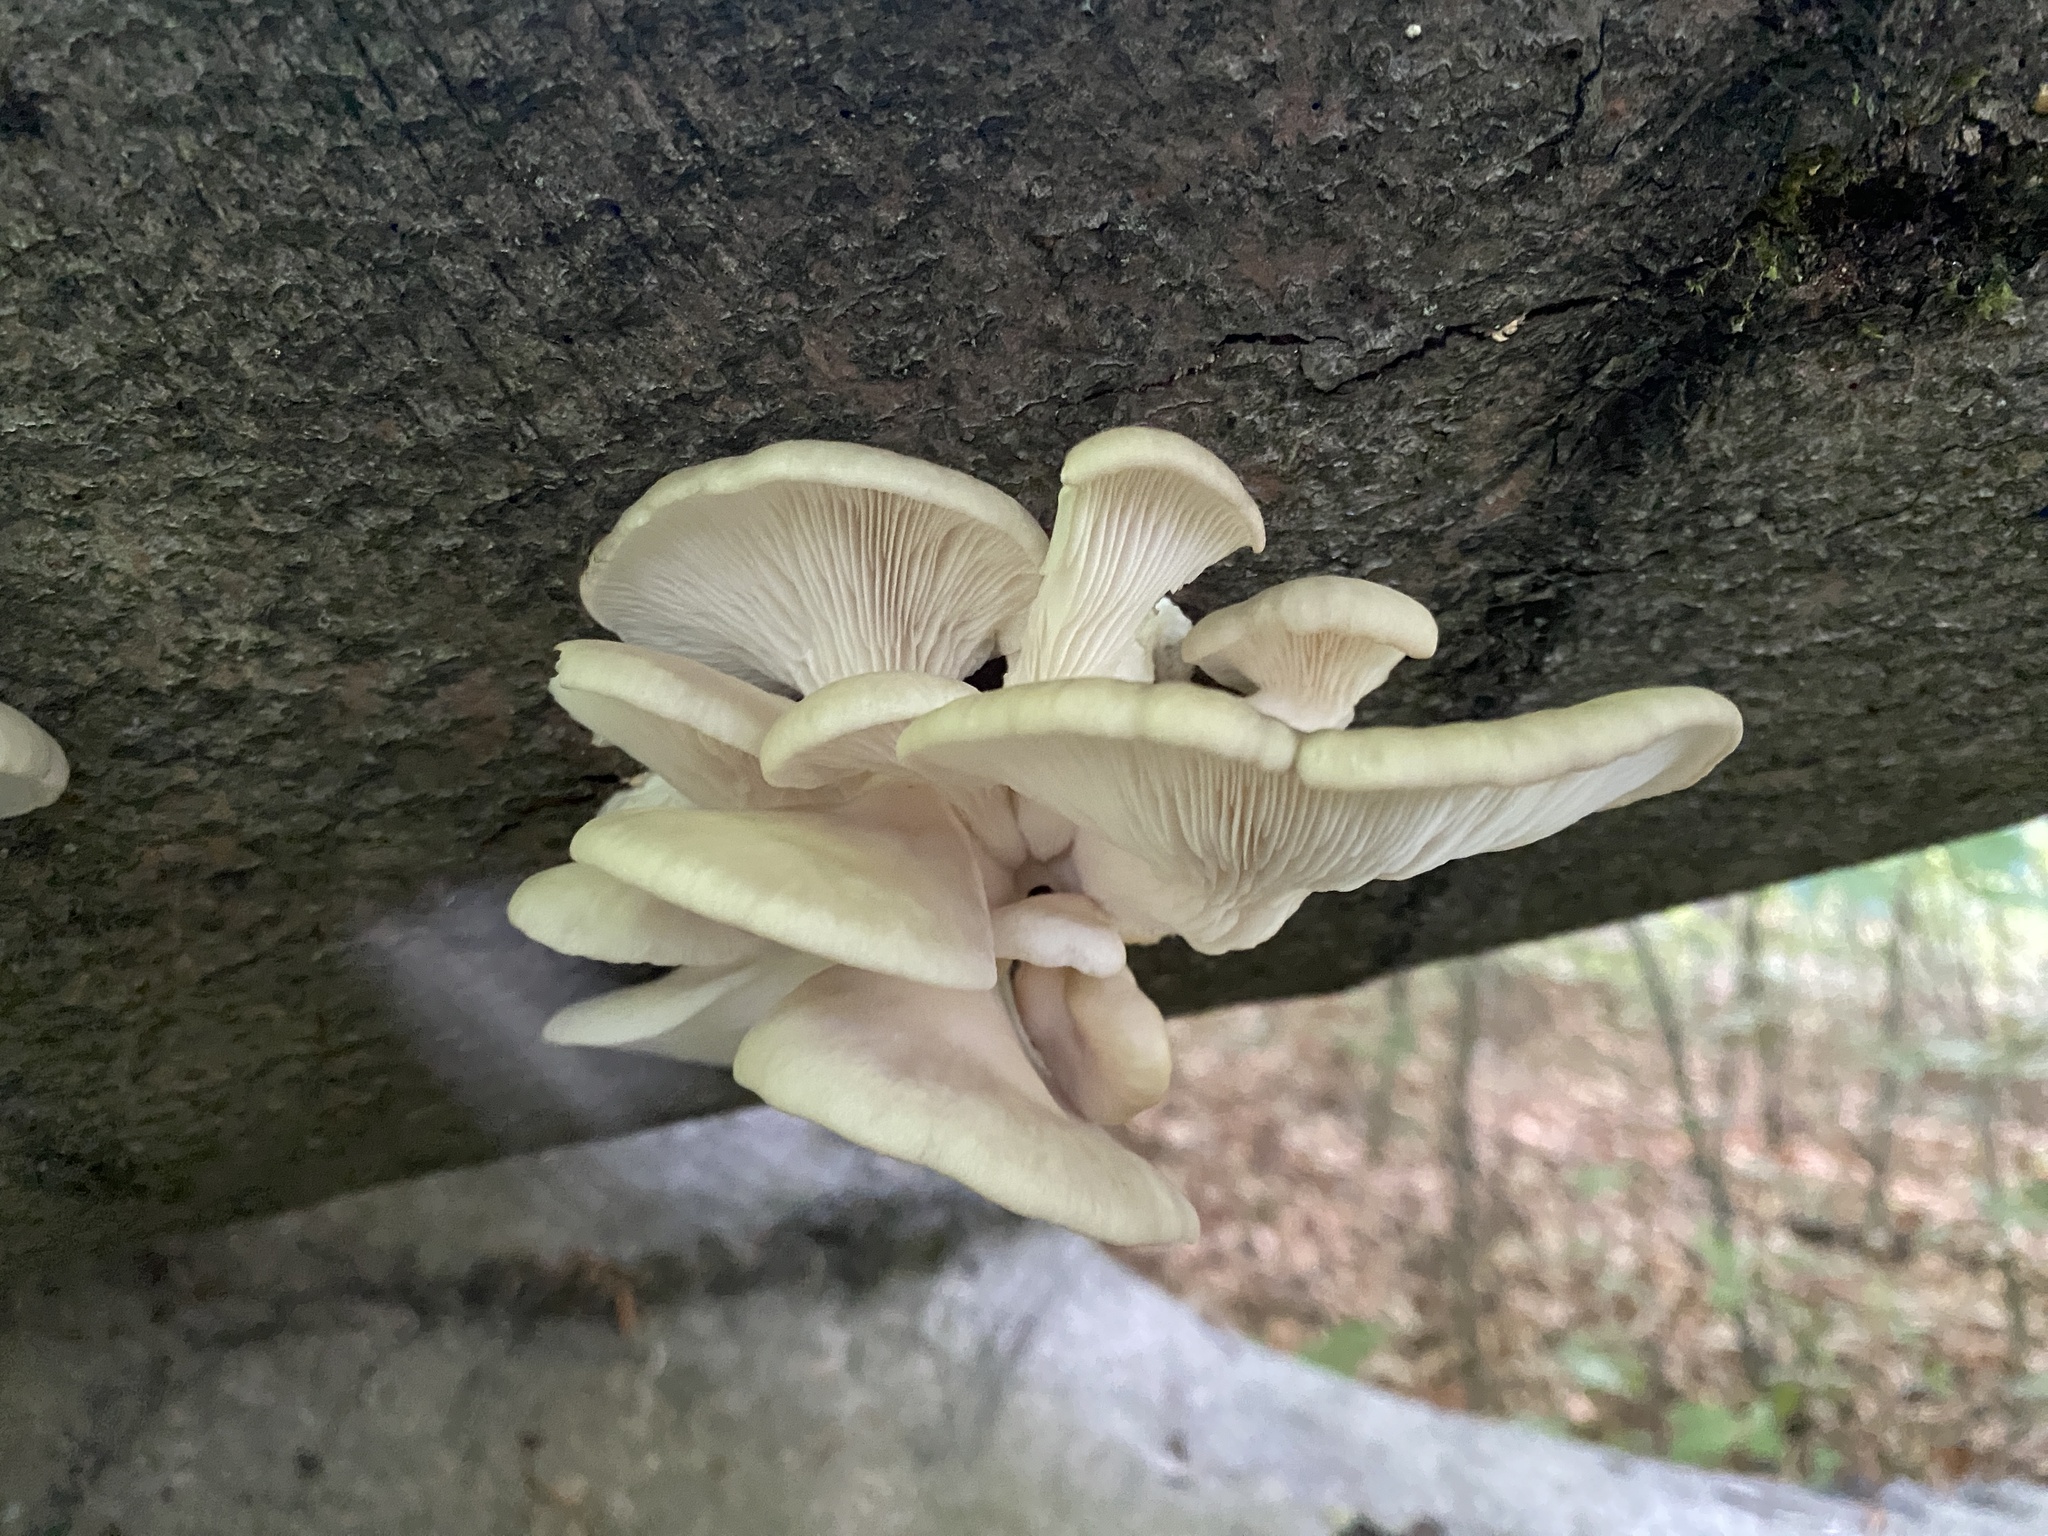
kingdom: Fungi
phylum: Basidiomycota
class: Agaricomycetes
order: Agaricales
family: Pleurotaceae
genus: Pleurotus
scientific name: Pleurotus pulmonarius
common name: Pale oyster
